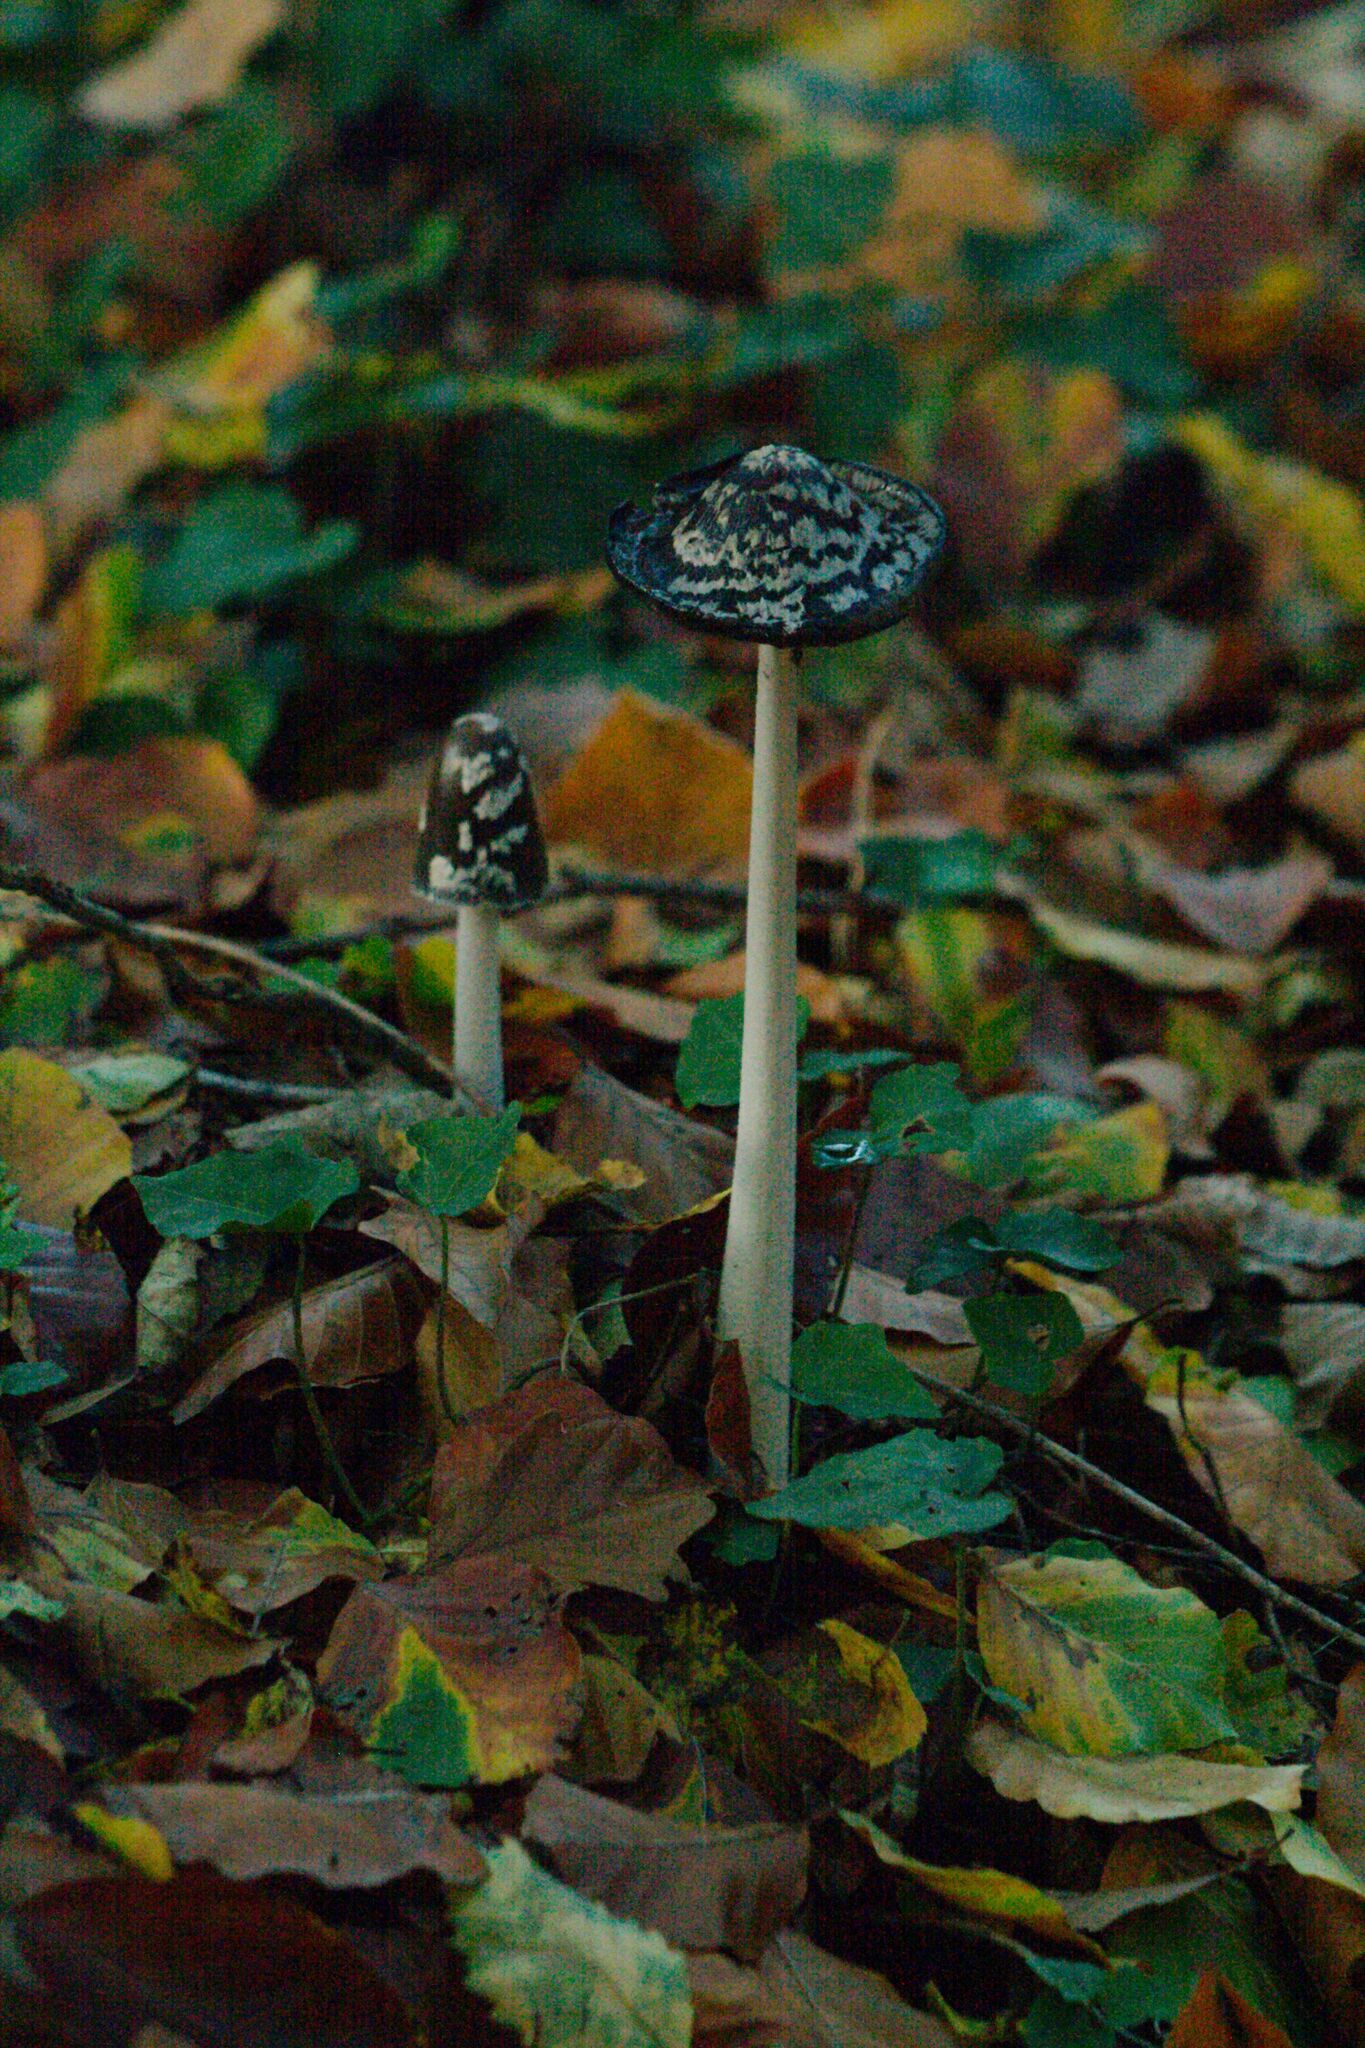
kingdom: Fungi
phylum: Basidiomycota
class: Agaricomycetes
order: Agaricales
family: Psathyrellaceae
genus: Coprinopsis
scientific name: Coprinopsis picacea
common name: Magpie inkcap
